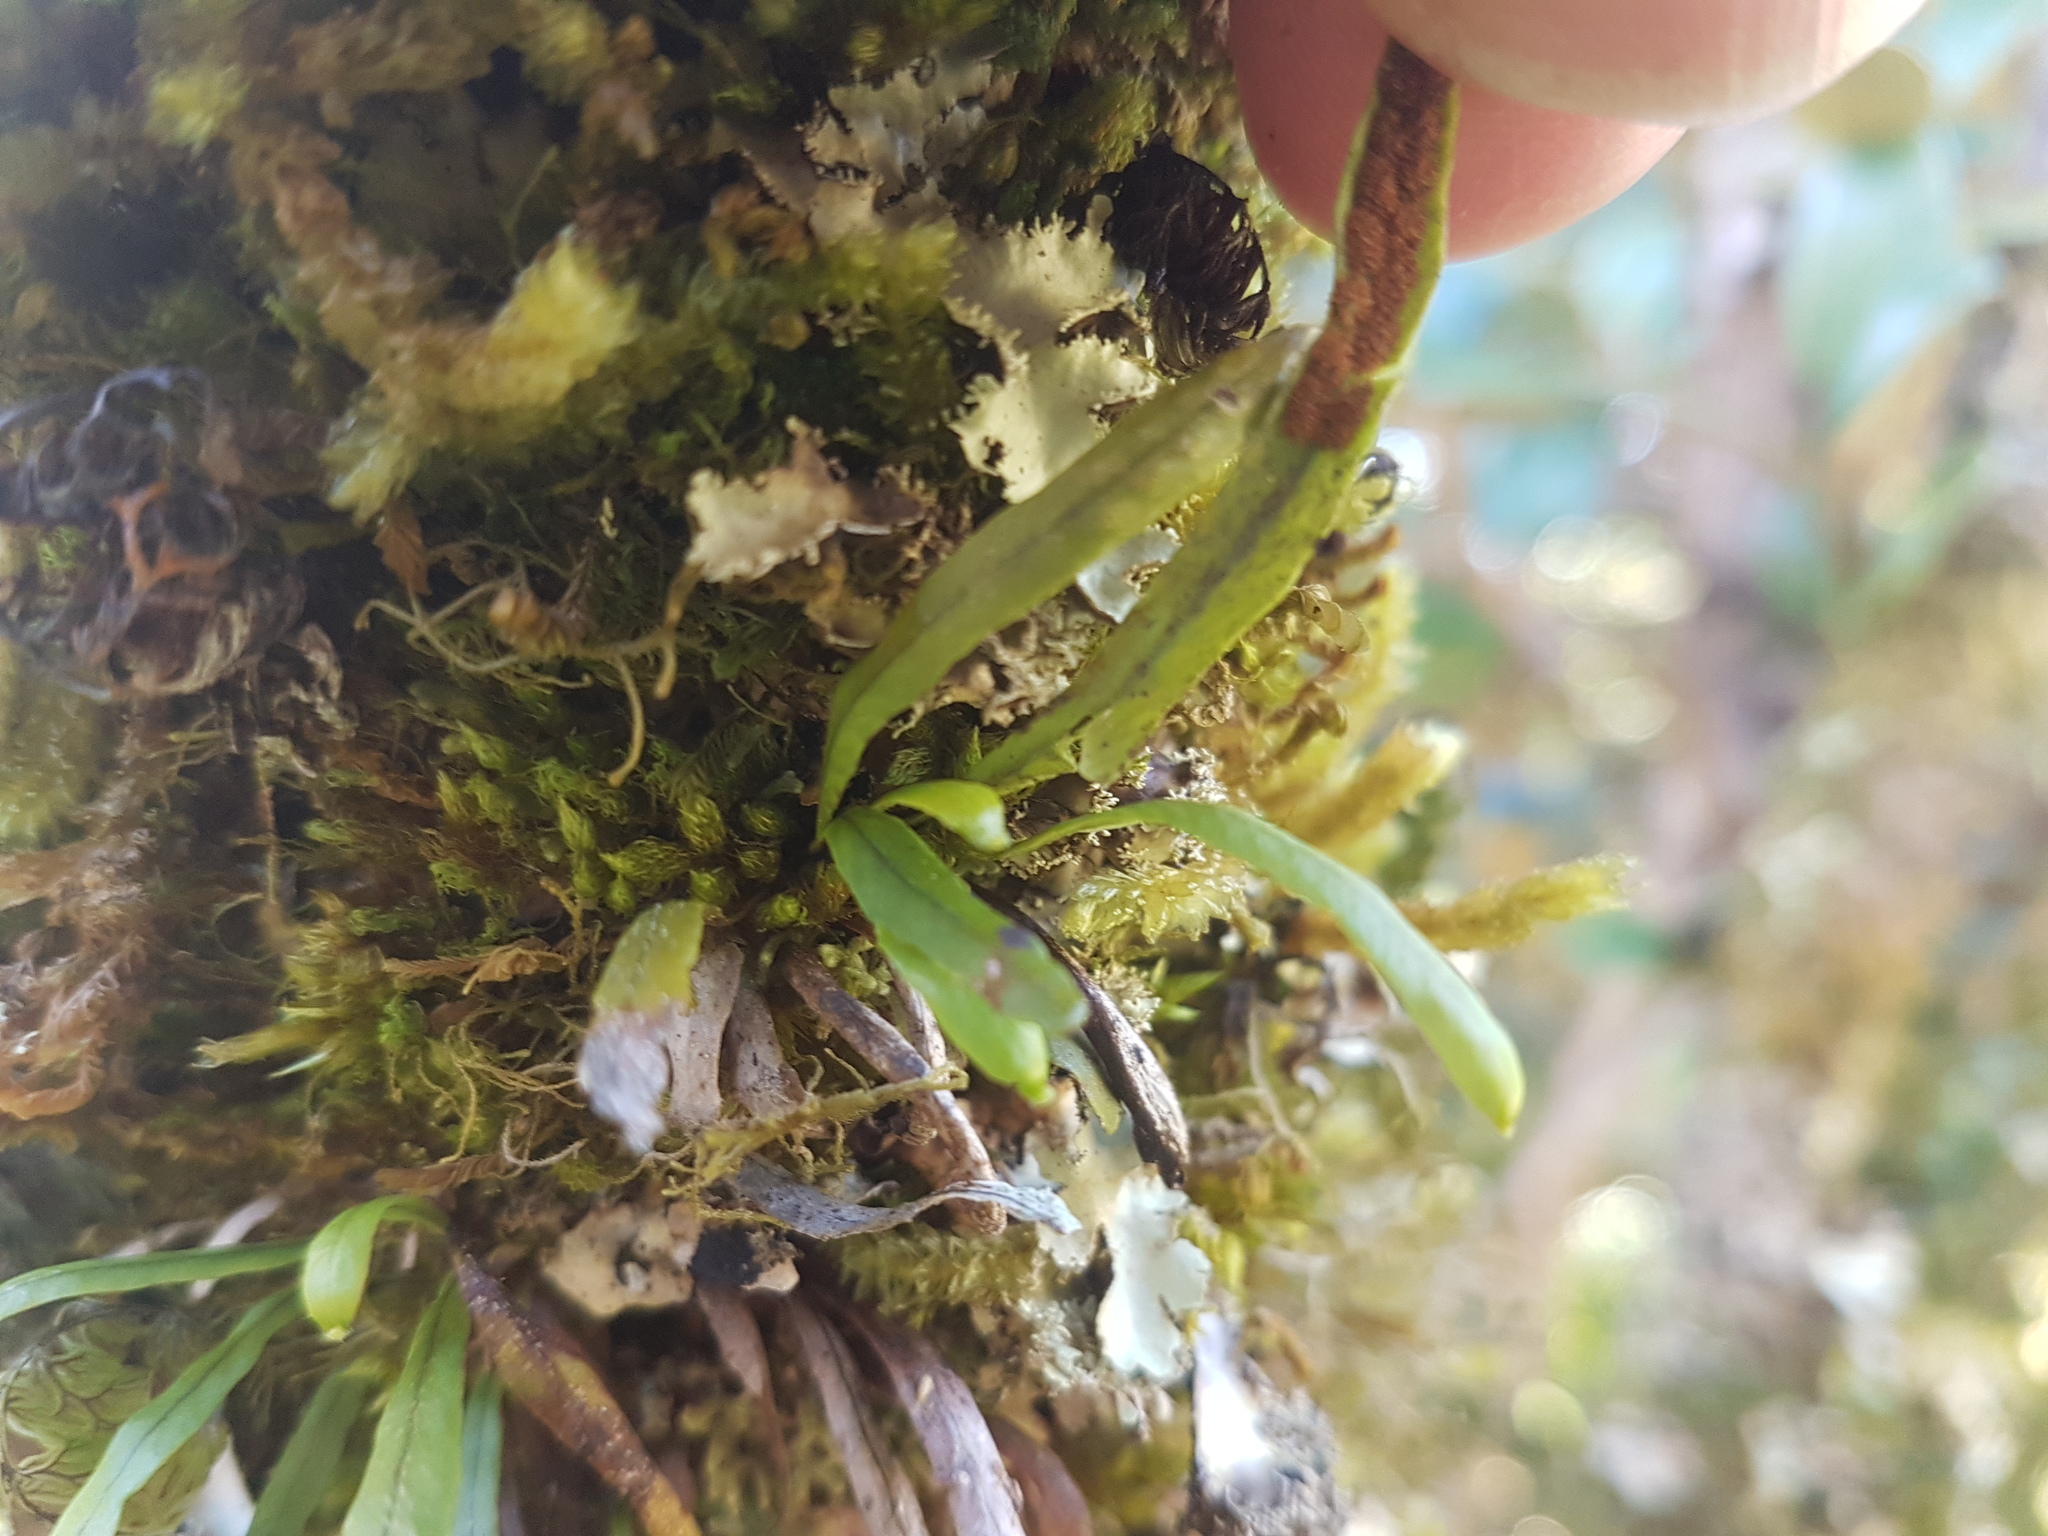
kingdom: Plantae
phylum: Tracheophyta
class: Polypodiopsida
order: Polypodiales
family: Polypodiaceae
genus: Notogrammitis
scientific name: Notogrammitis angustifolia
